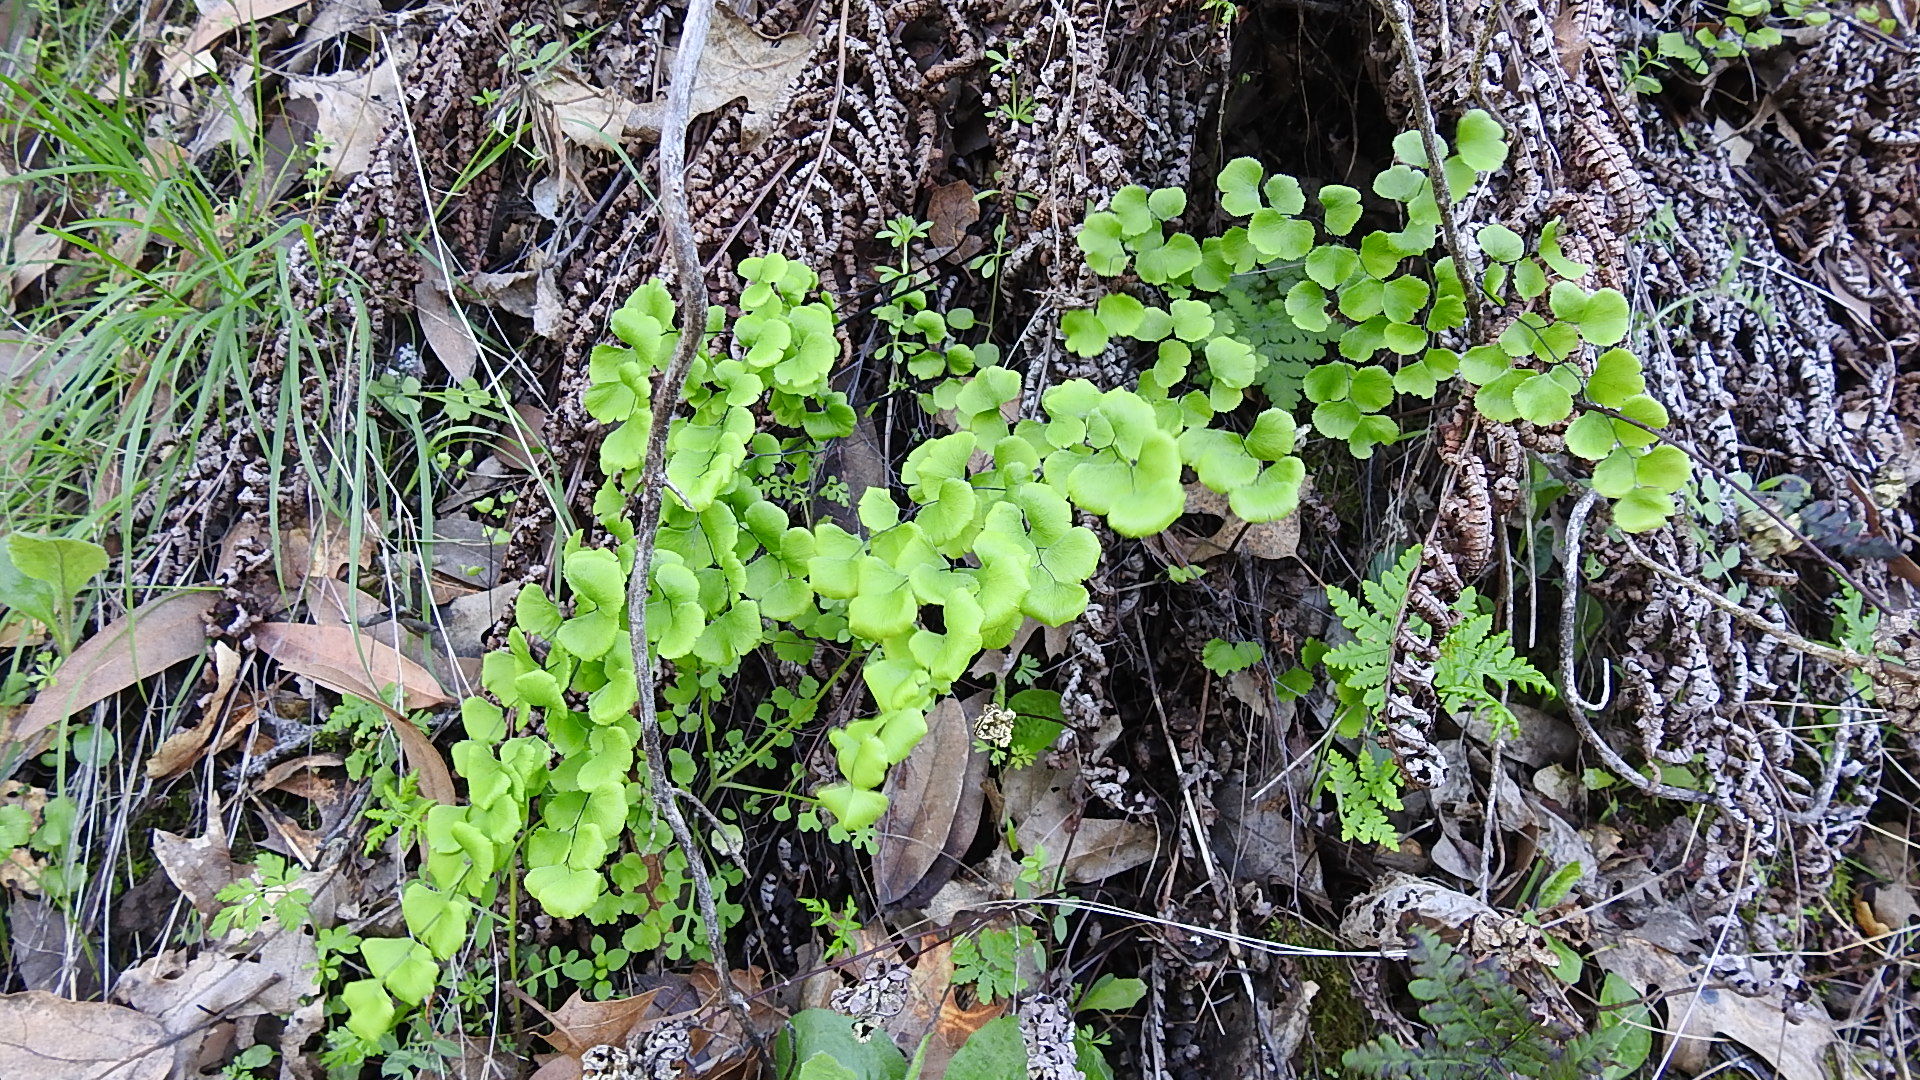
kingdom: Plantae
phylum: Tracheophyta
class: Polypodiopsida
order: Polypodiales
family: Pteridaceae
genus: Adiantum
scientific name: Adiantum jordanii
